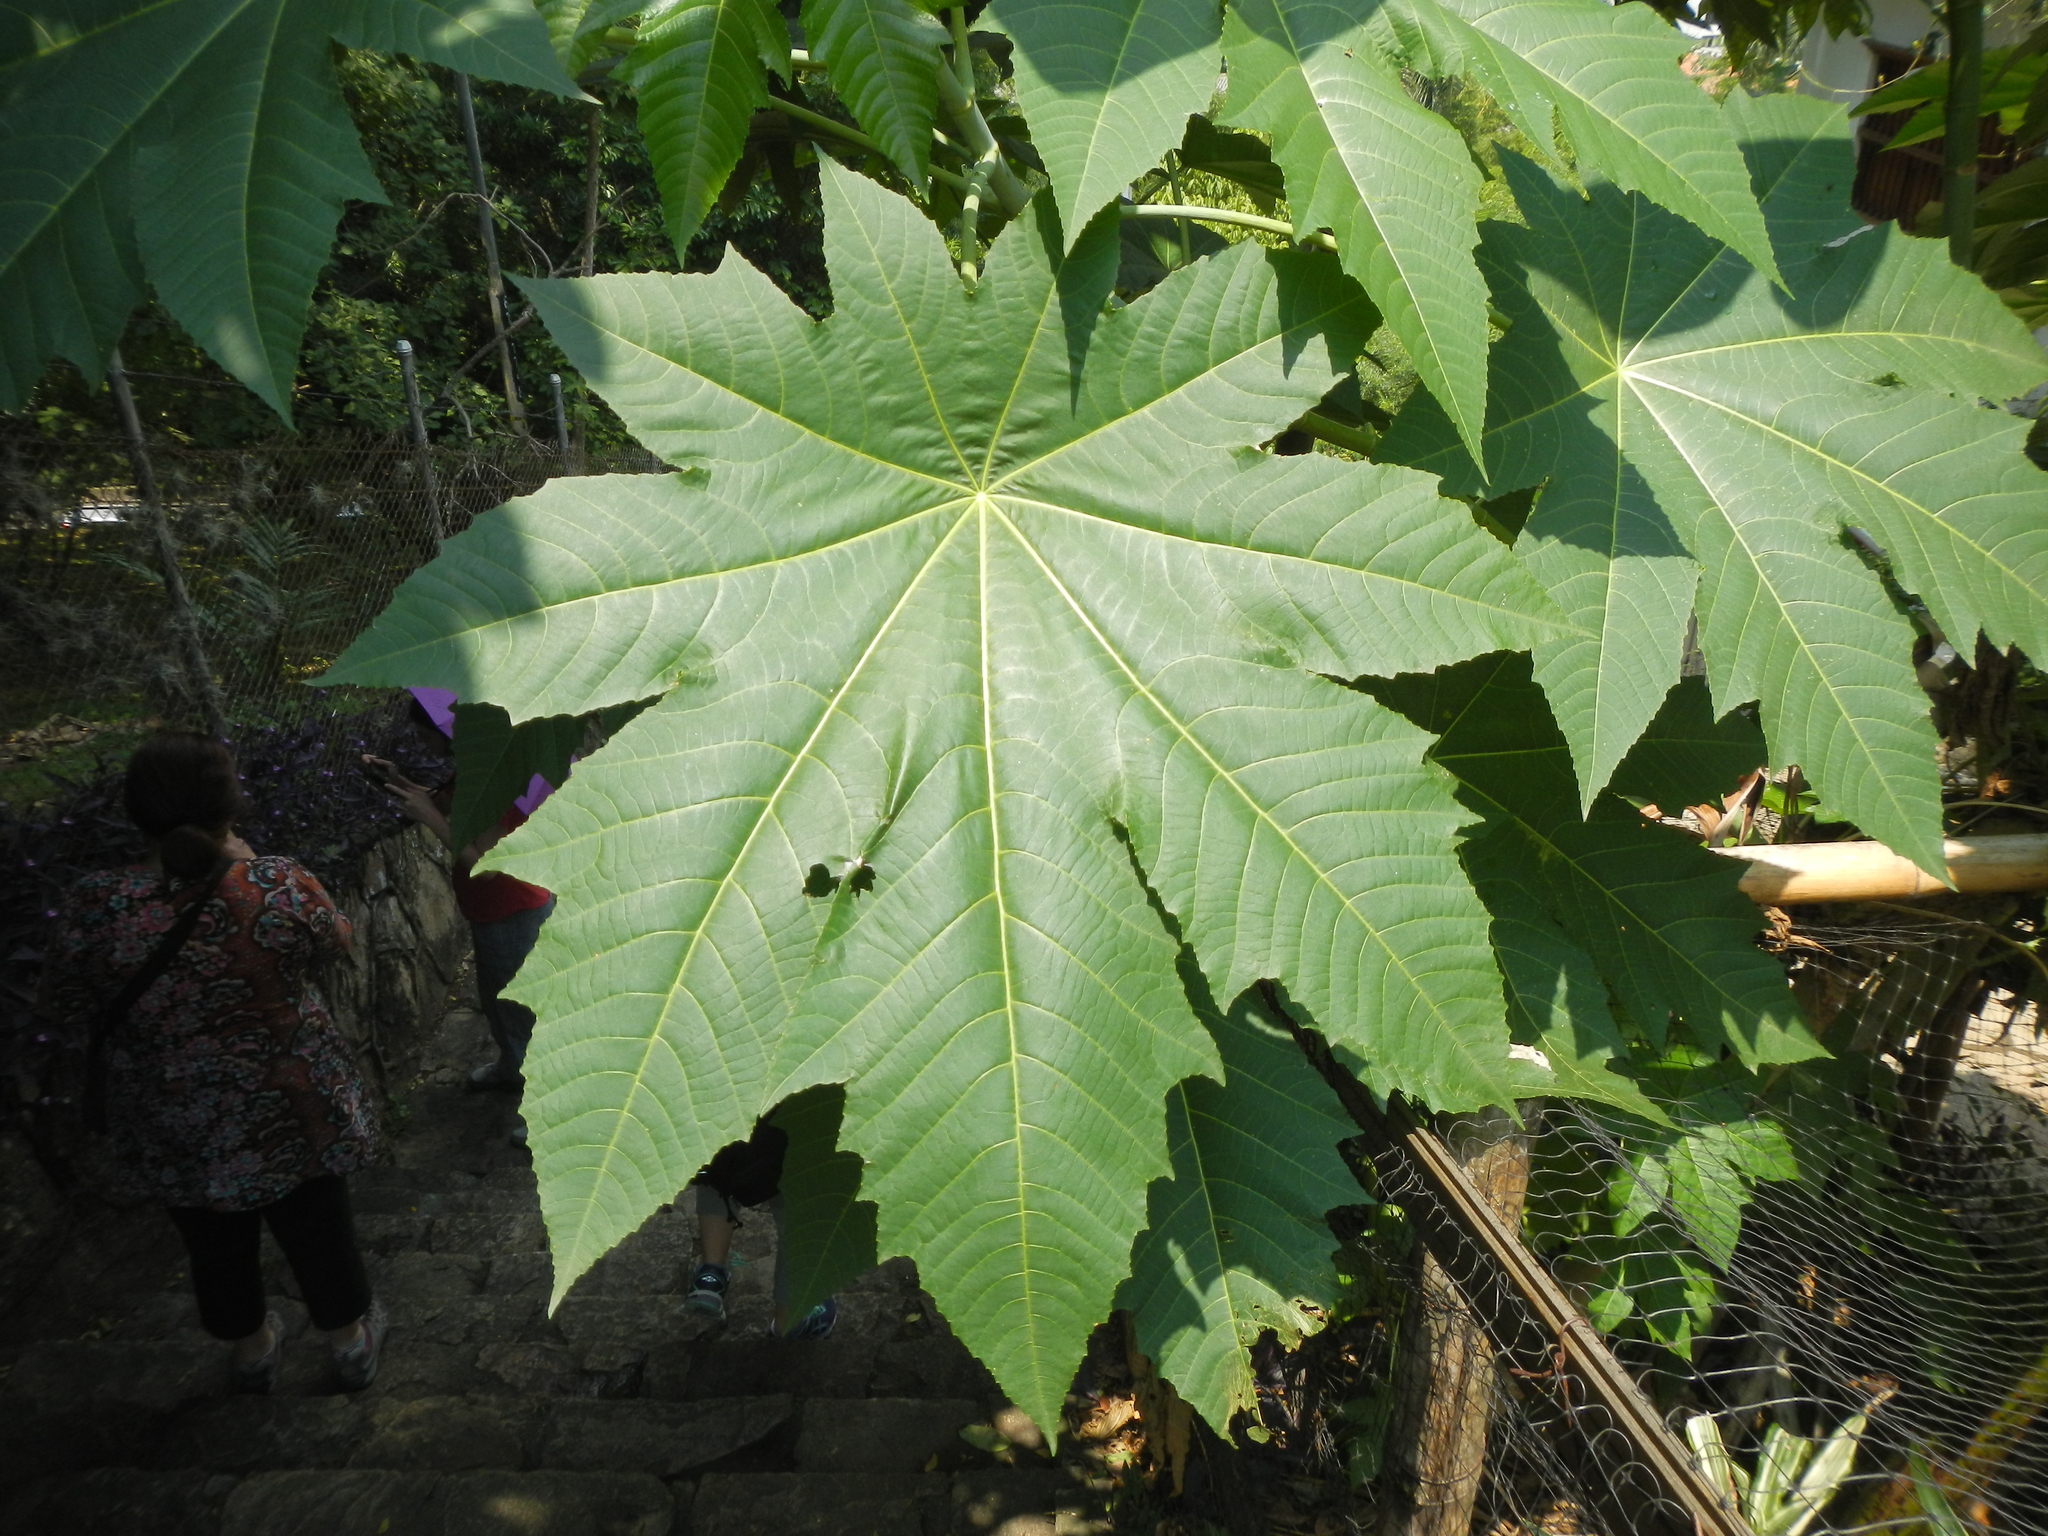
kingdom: Plantae
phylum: Tracheophyta
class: Magnoliopsida
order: Malpighiales
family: Euphorbiaceae
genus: Ricinus
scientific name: Ricinus communis
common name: Castor-oil-plant
